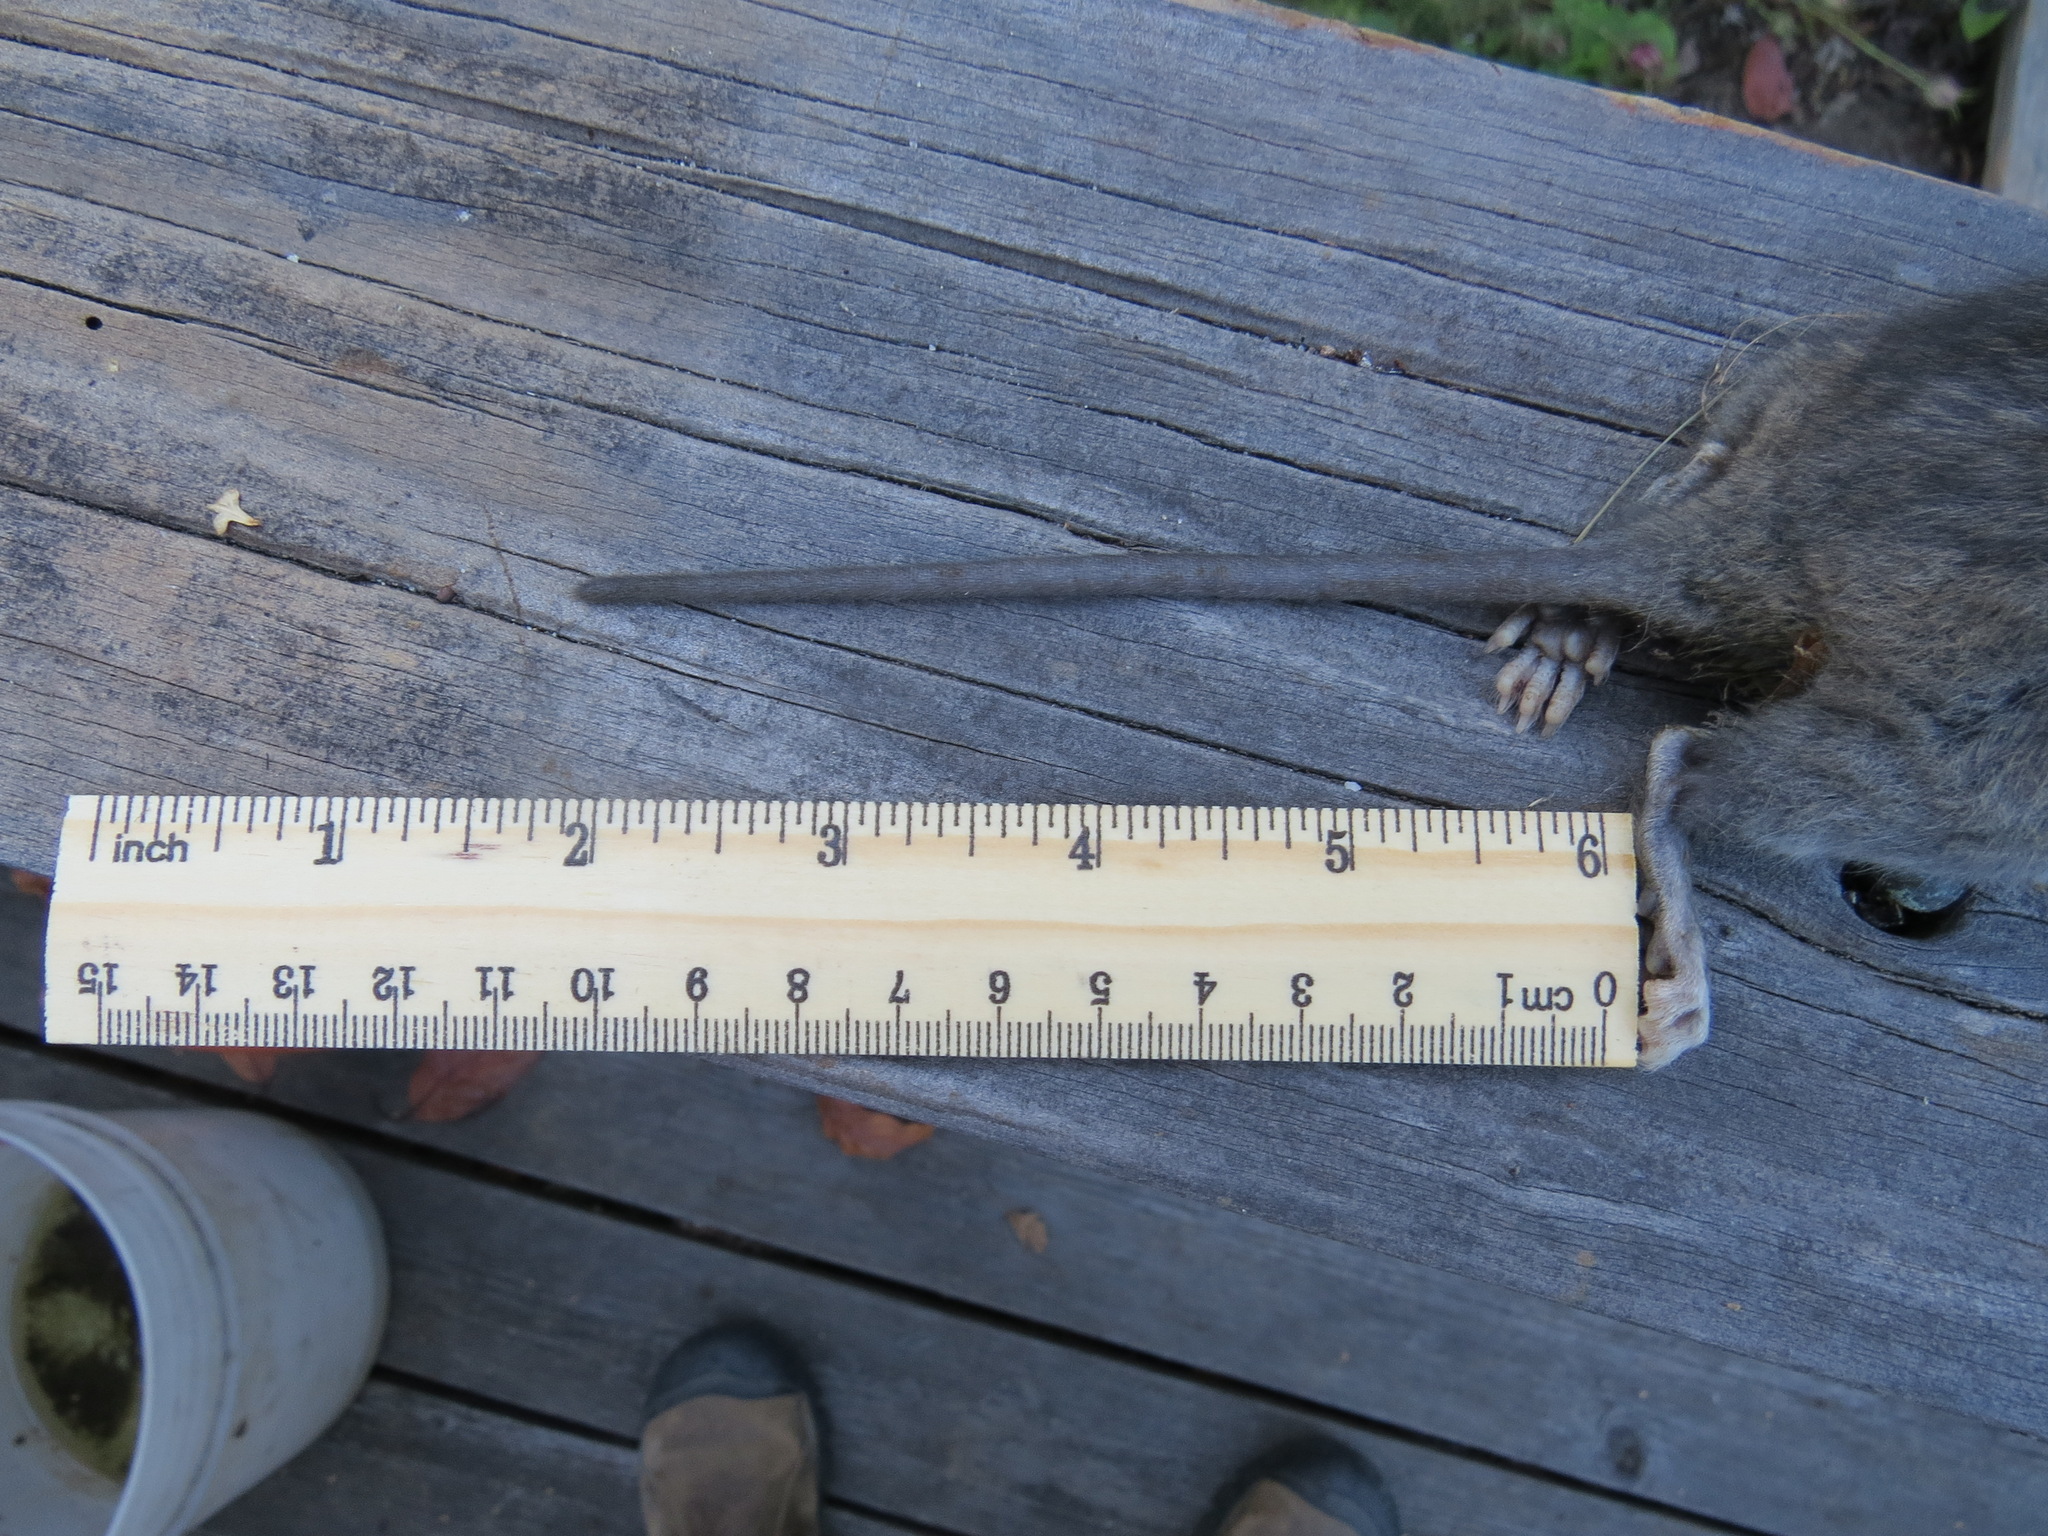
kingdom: Animalia
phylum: Chordata
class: Mammalia
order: Rodentia
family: Cricetidae
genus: Neotoma
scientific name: Neotoma fuscipes
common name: Dusky-footed woodrat
